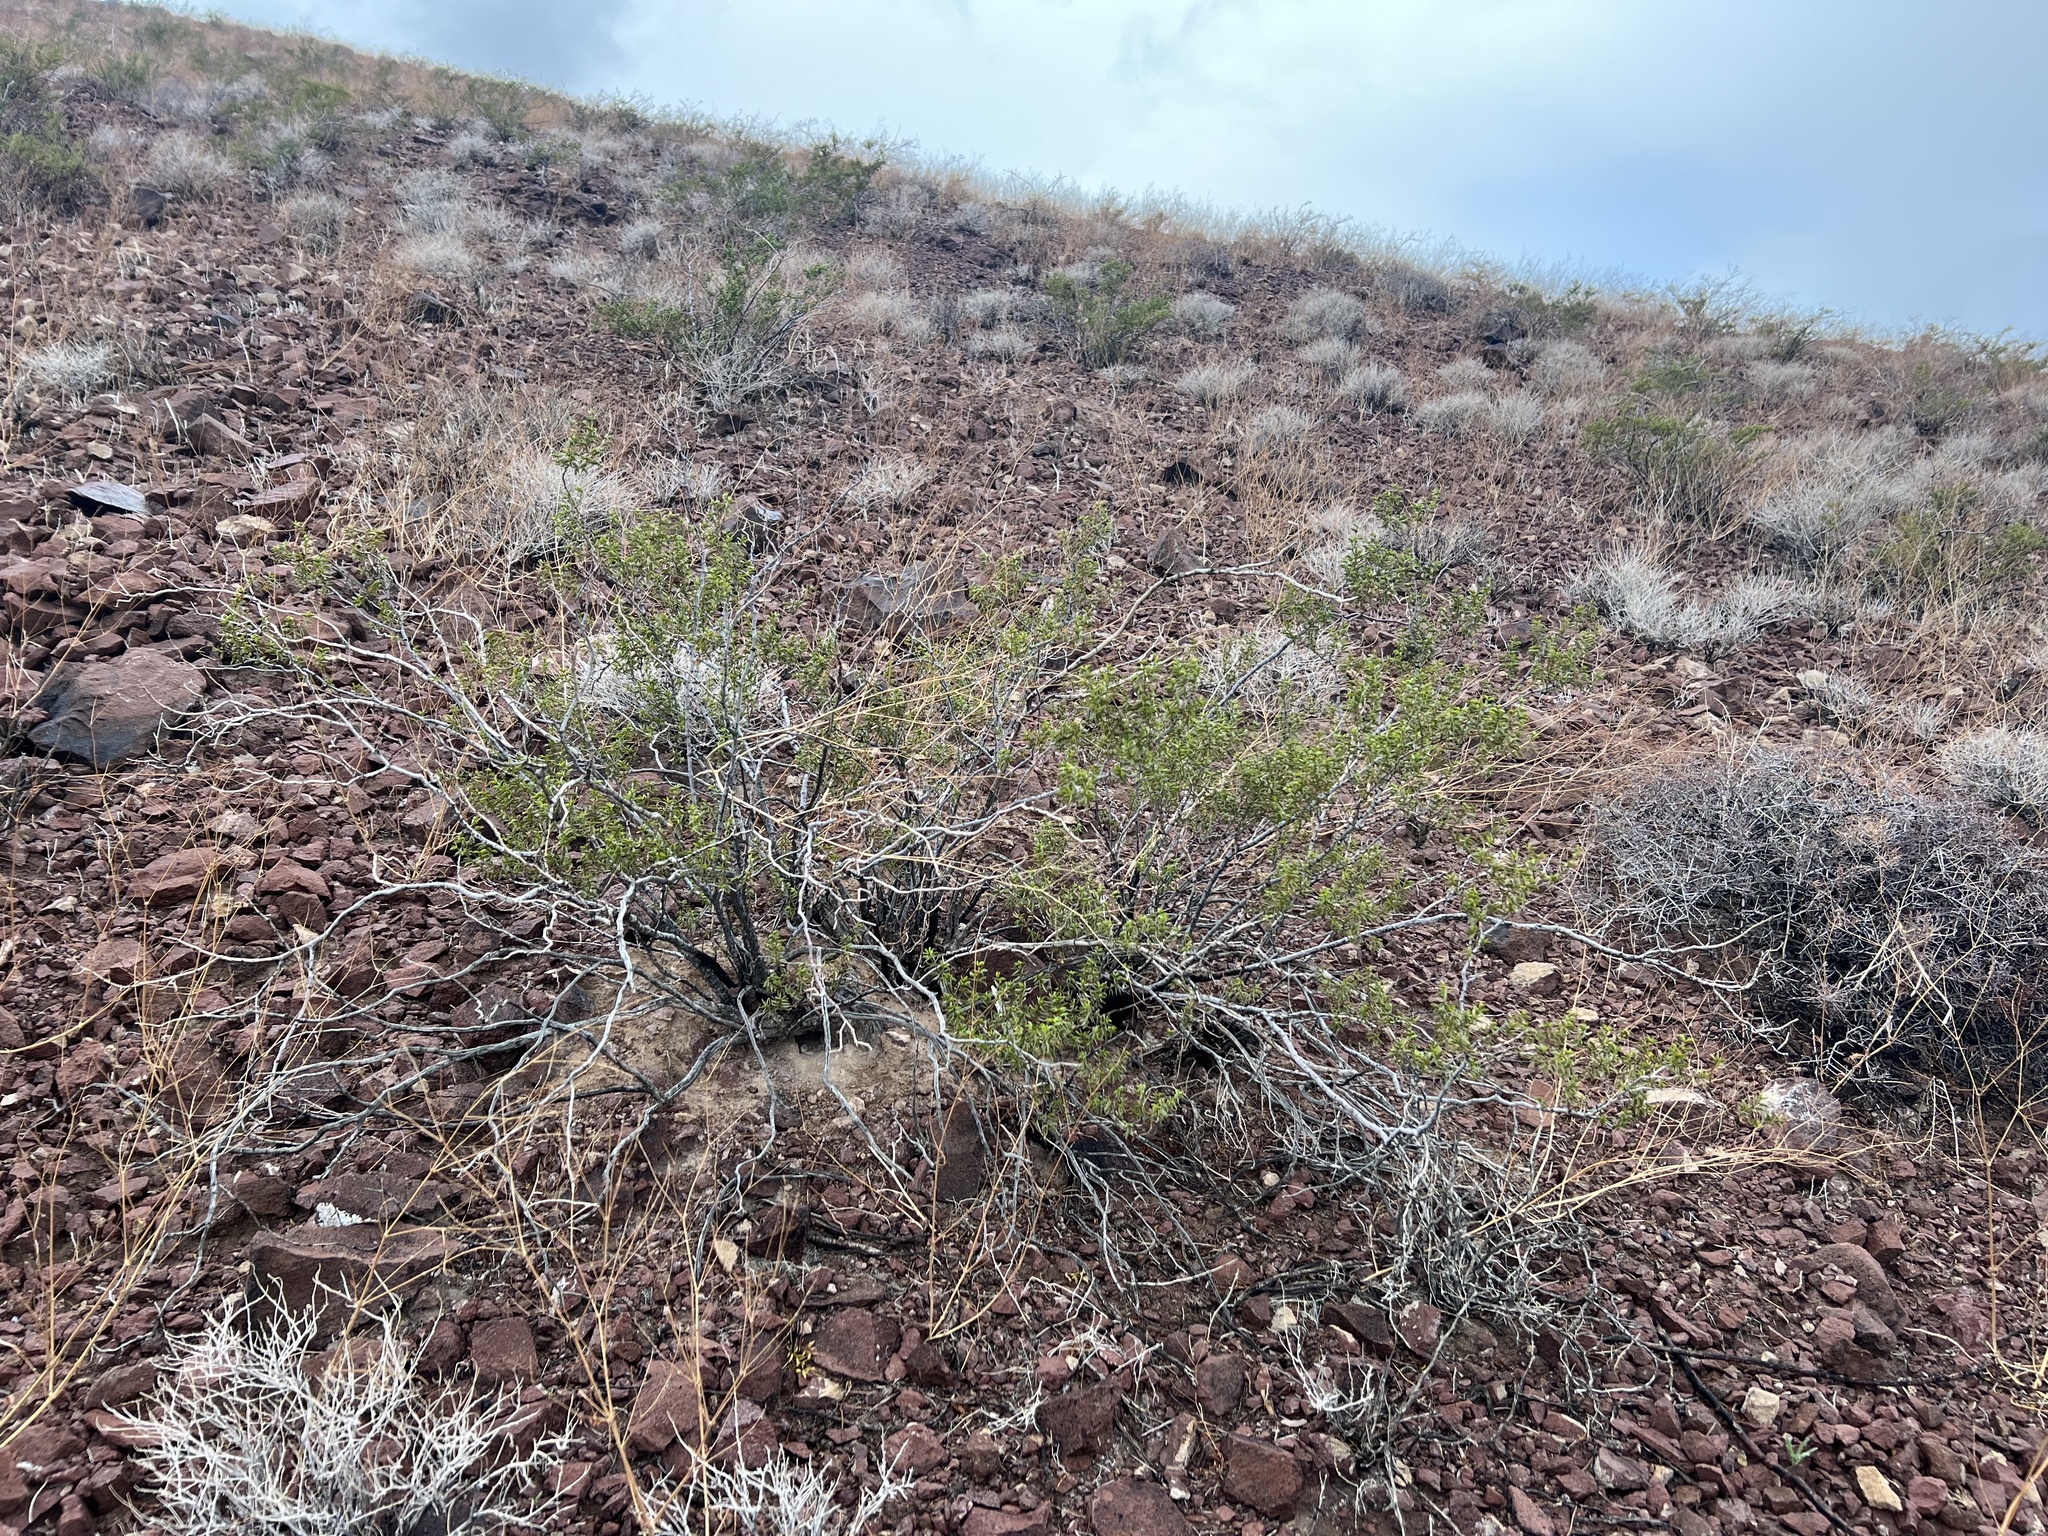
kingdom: Plantae
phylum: Tracheophyta
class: Magnoliopsida
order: Zygophyllales
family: Zygophyllaceae
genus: Larrea
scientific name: Larrea tridentata
